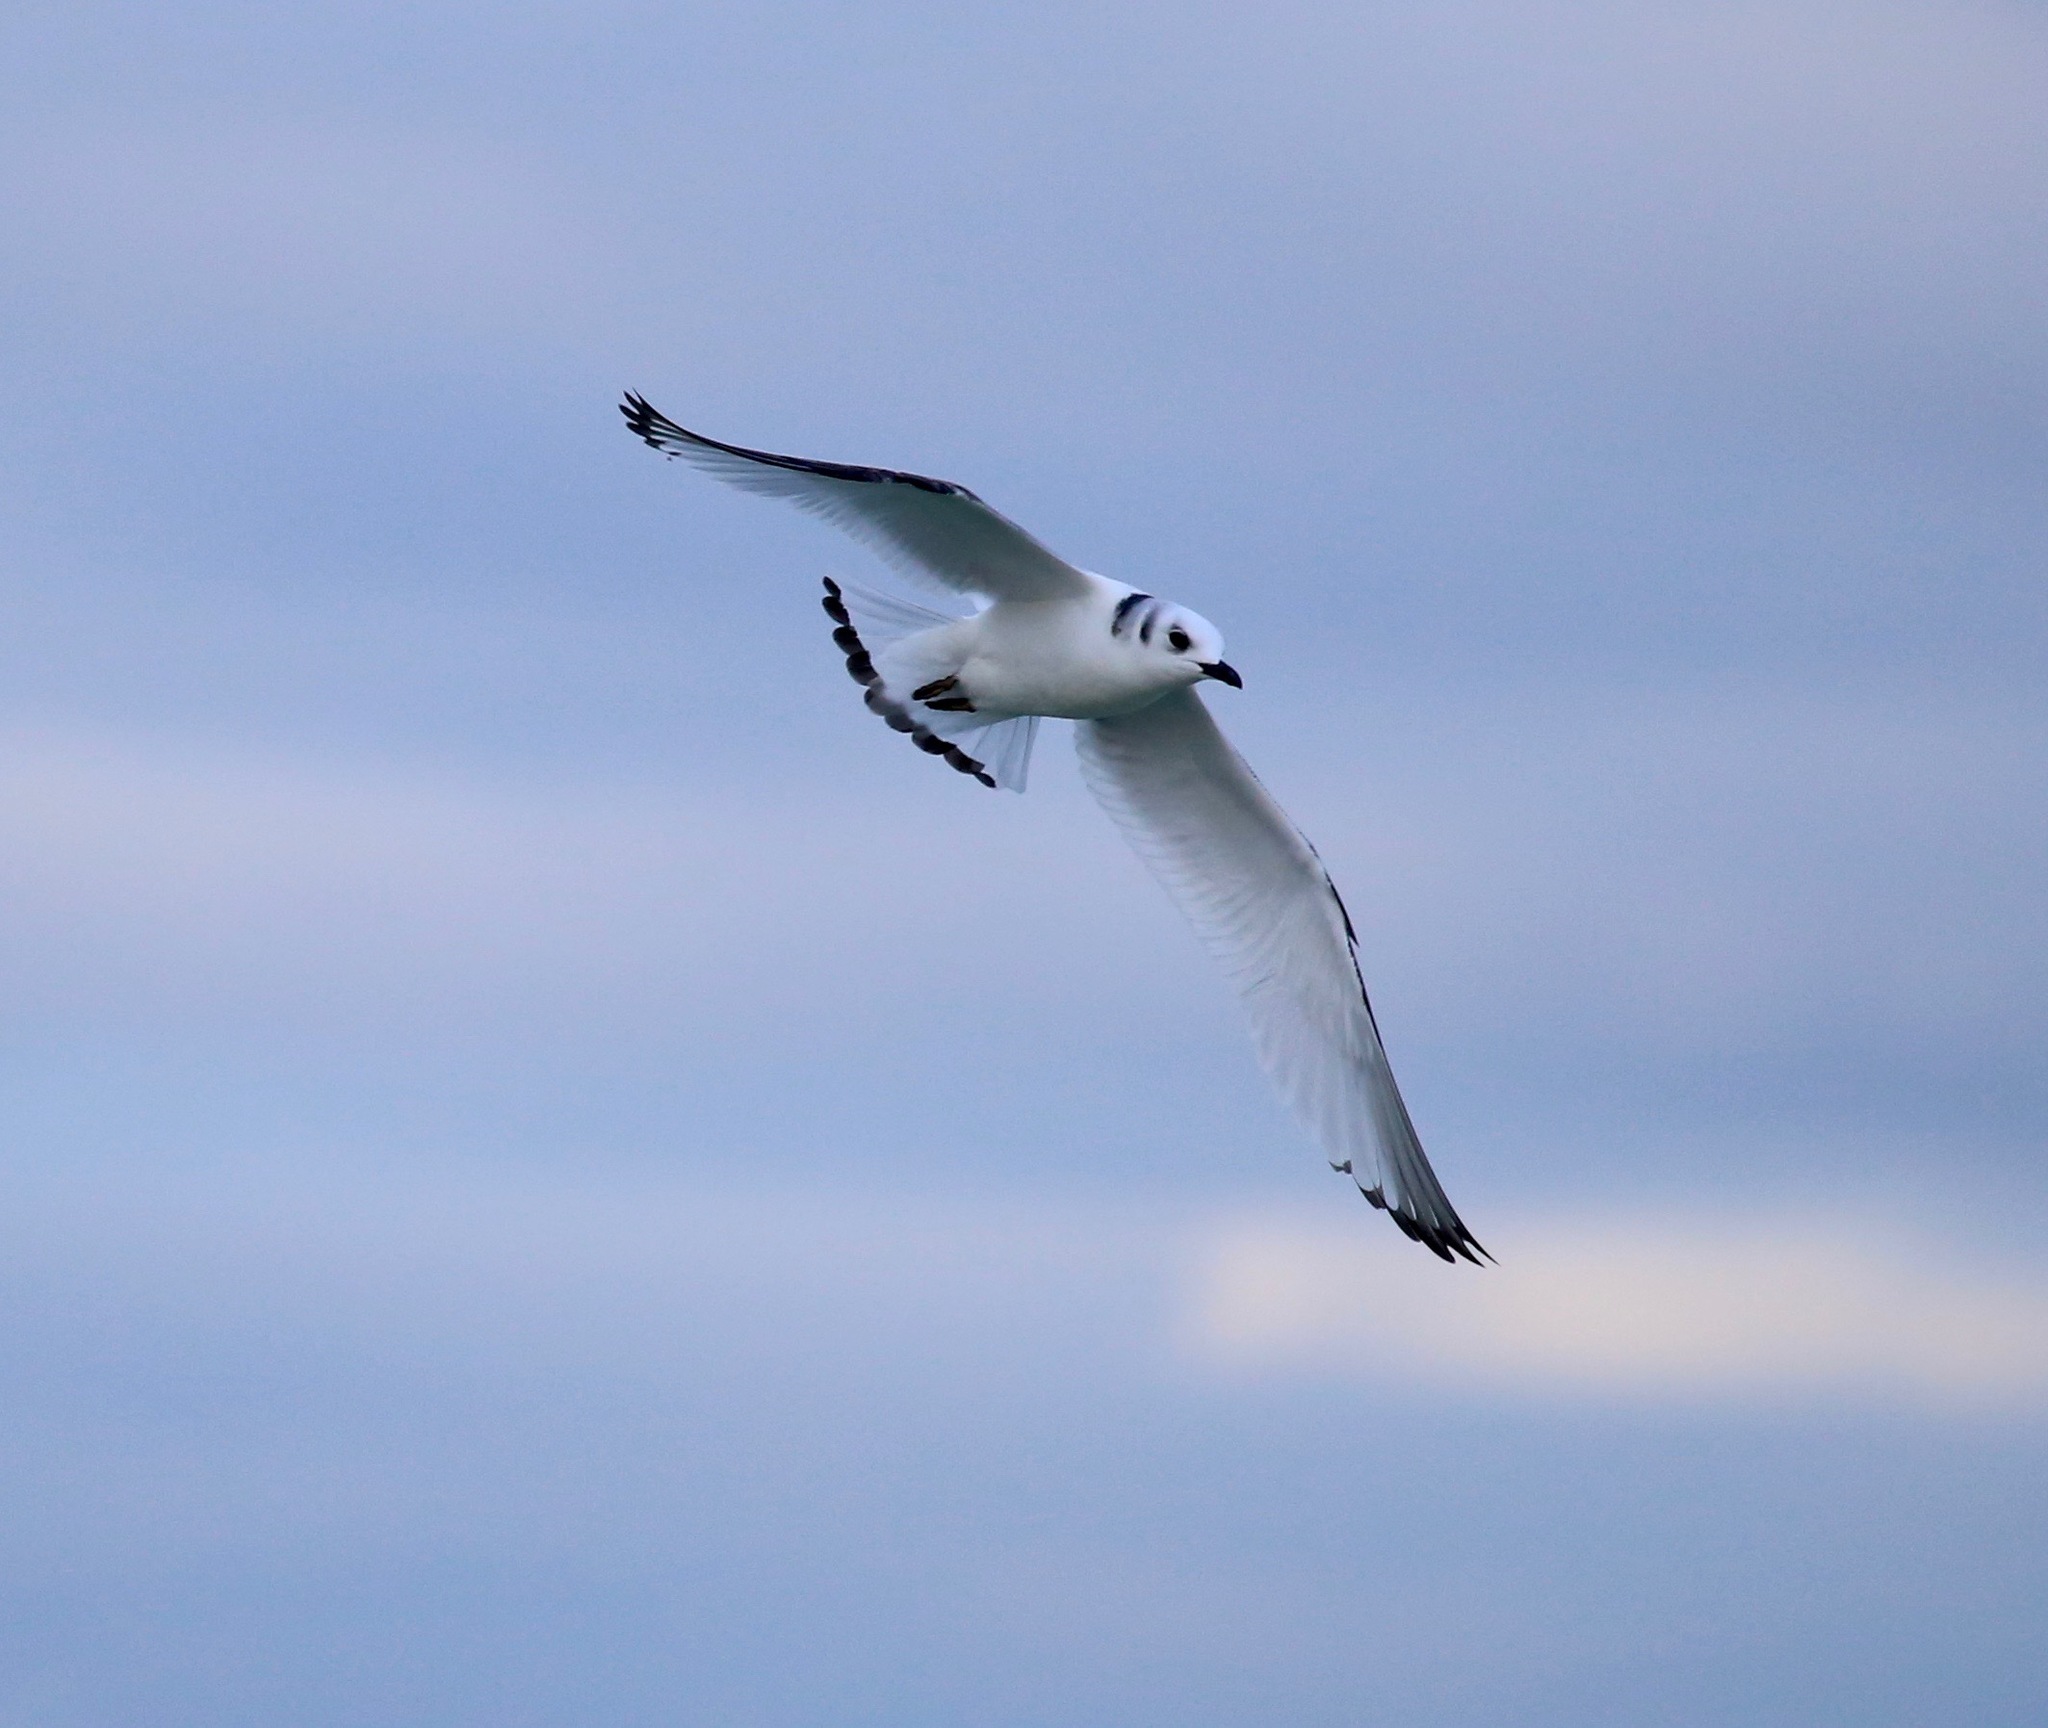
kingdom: Animalia
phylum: Chordata
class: Aves
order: Charadriiformes
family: Laridae
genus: Rissa
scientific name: Rissa tridactyla
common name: Black-legged kittiwake
